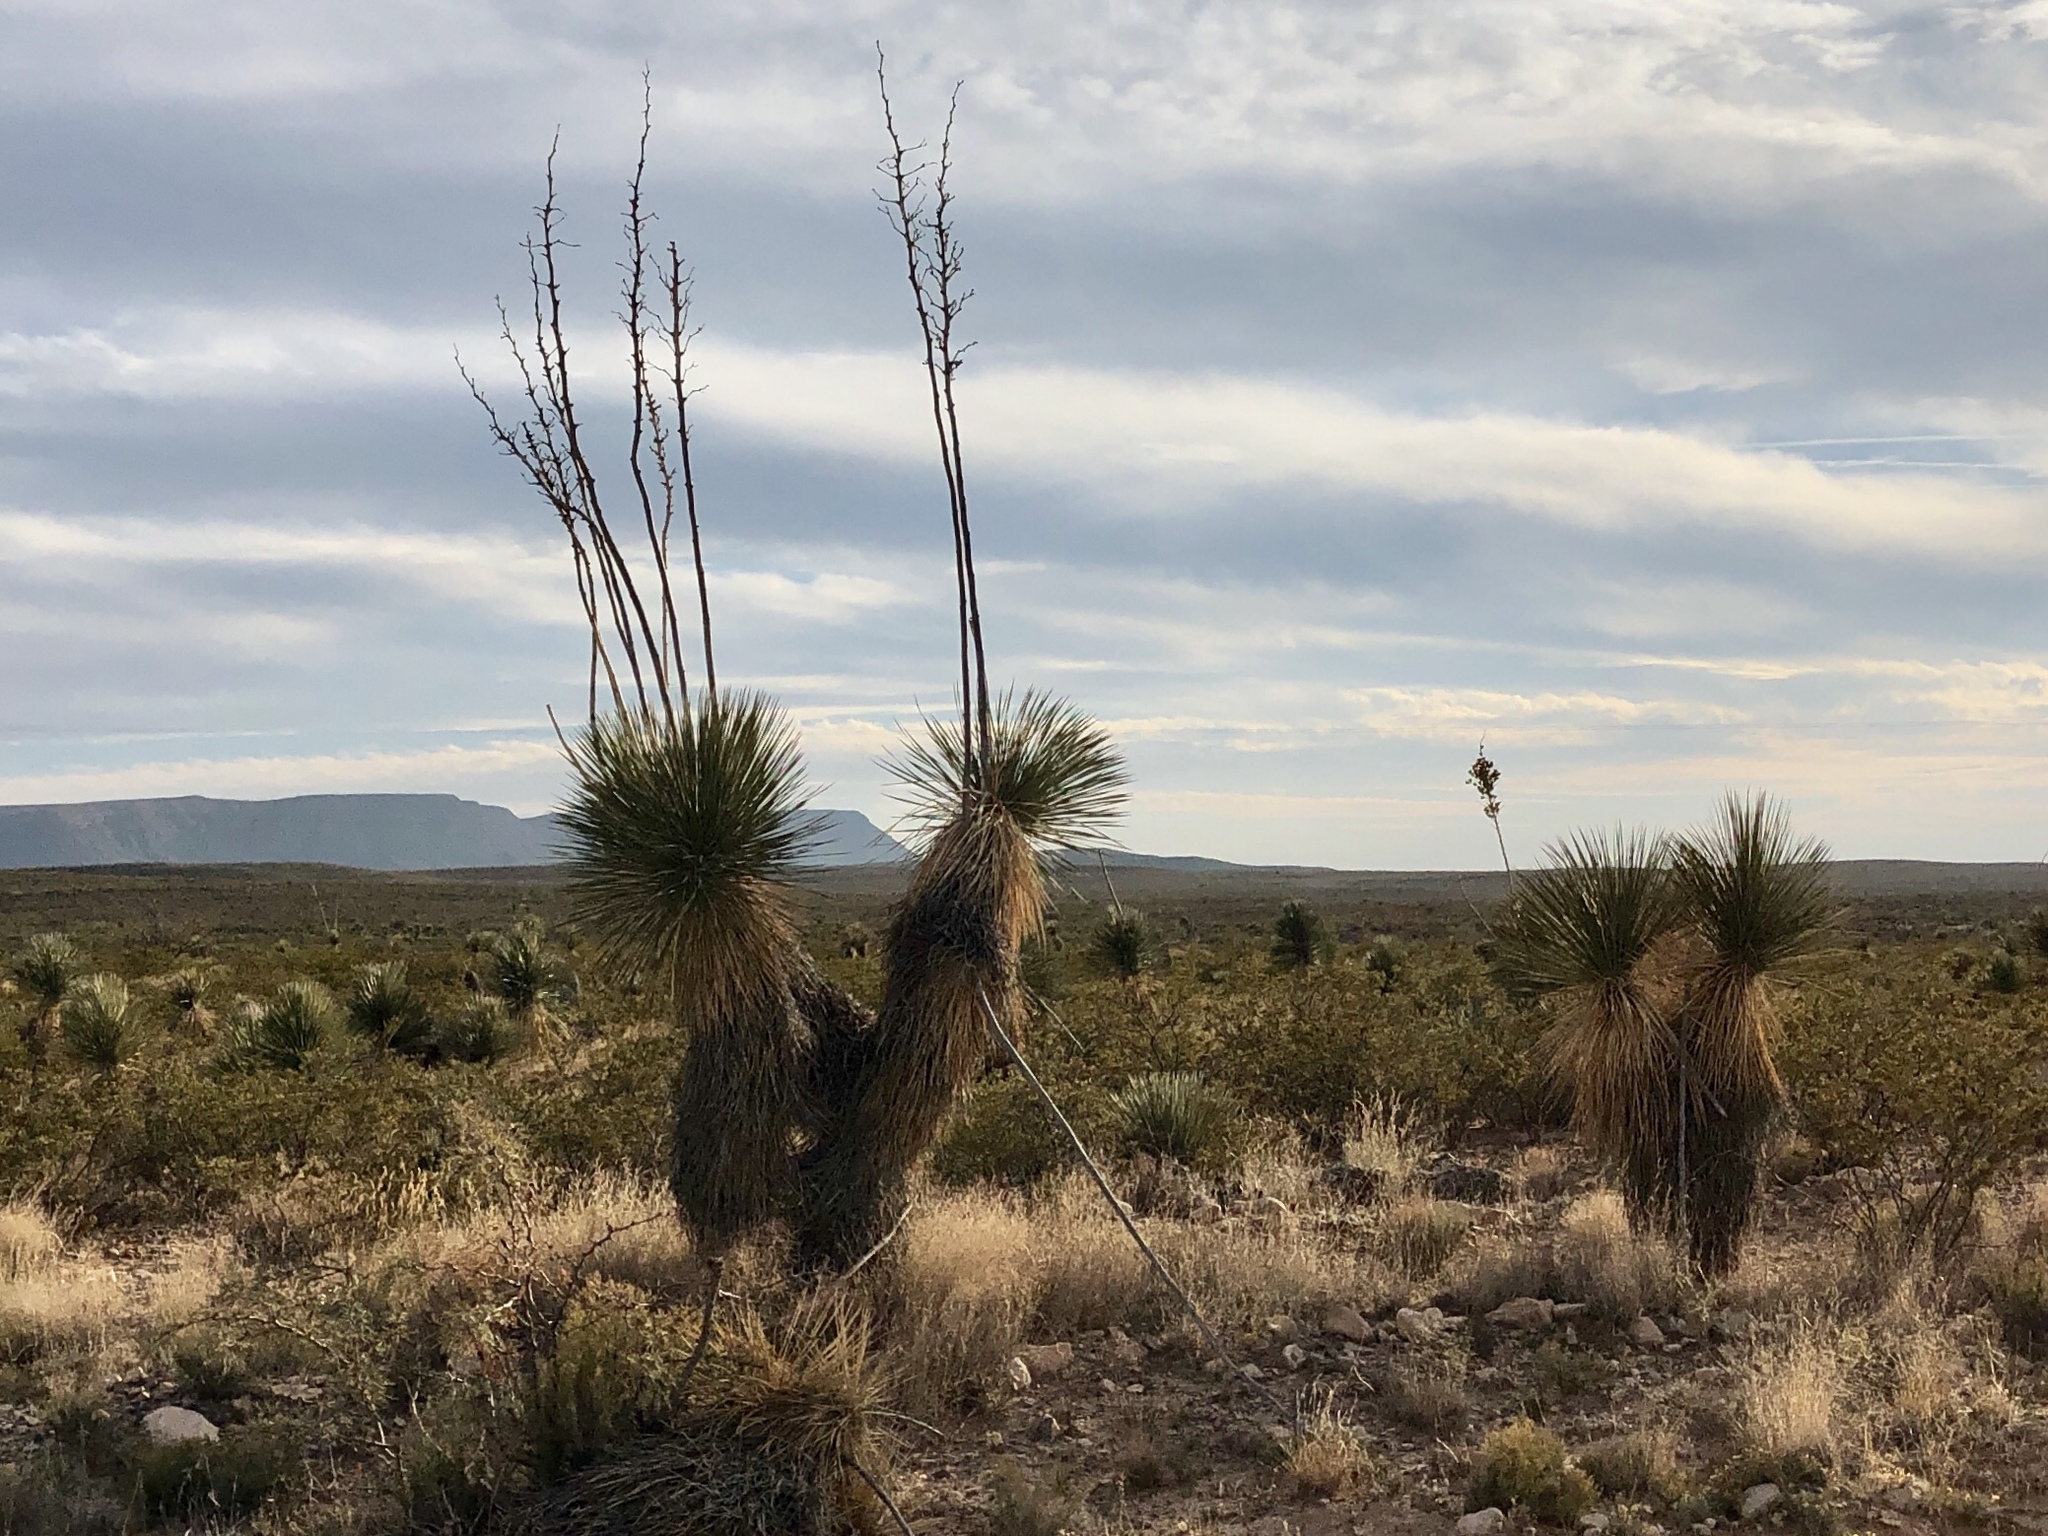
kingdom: Plantae
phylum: Tracheophyta
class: Liliopsida
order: Asparagales
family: Asparagaceae
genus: Yucca
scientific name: Yucca elata
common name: Palmella
